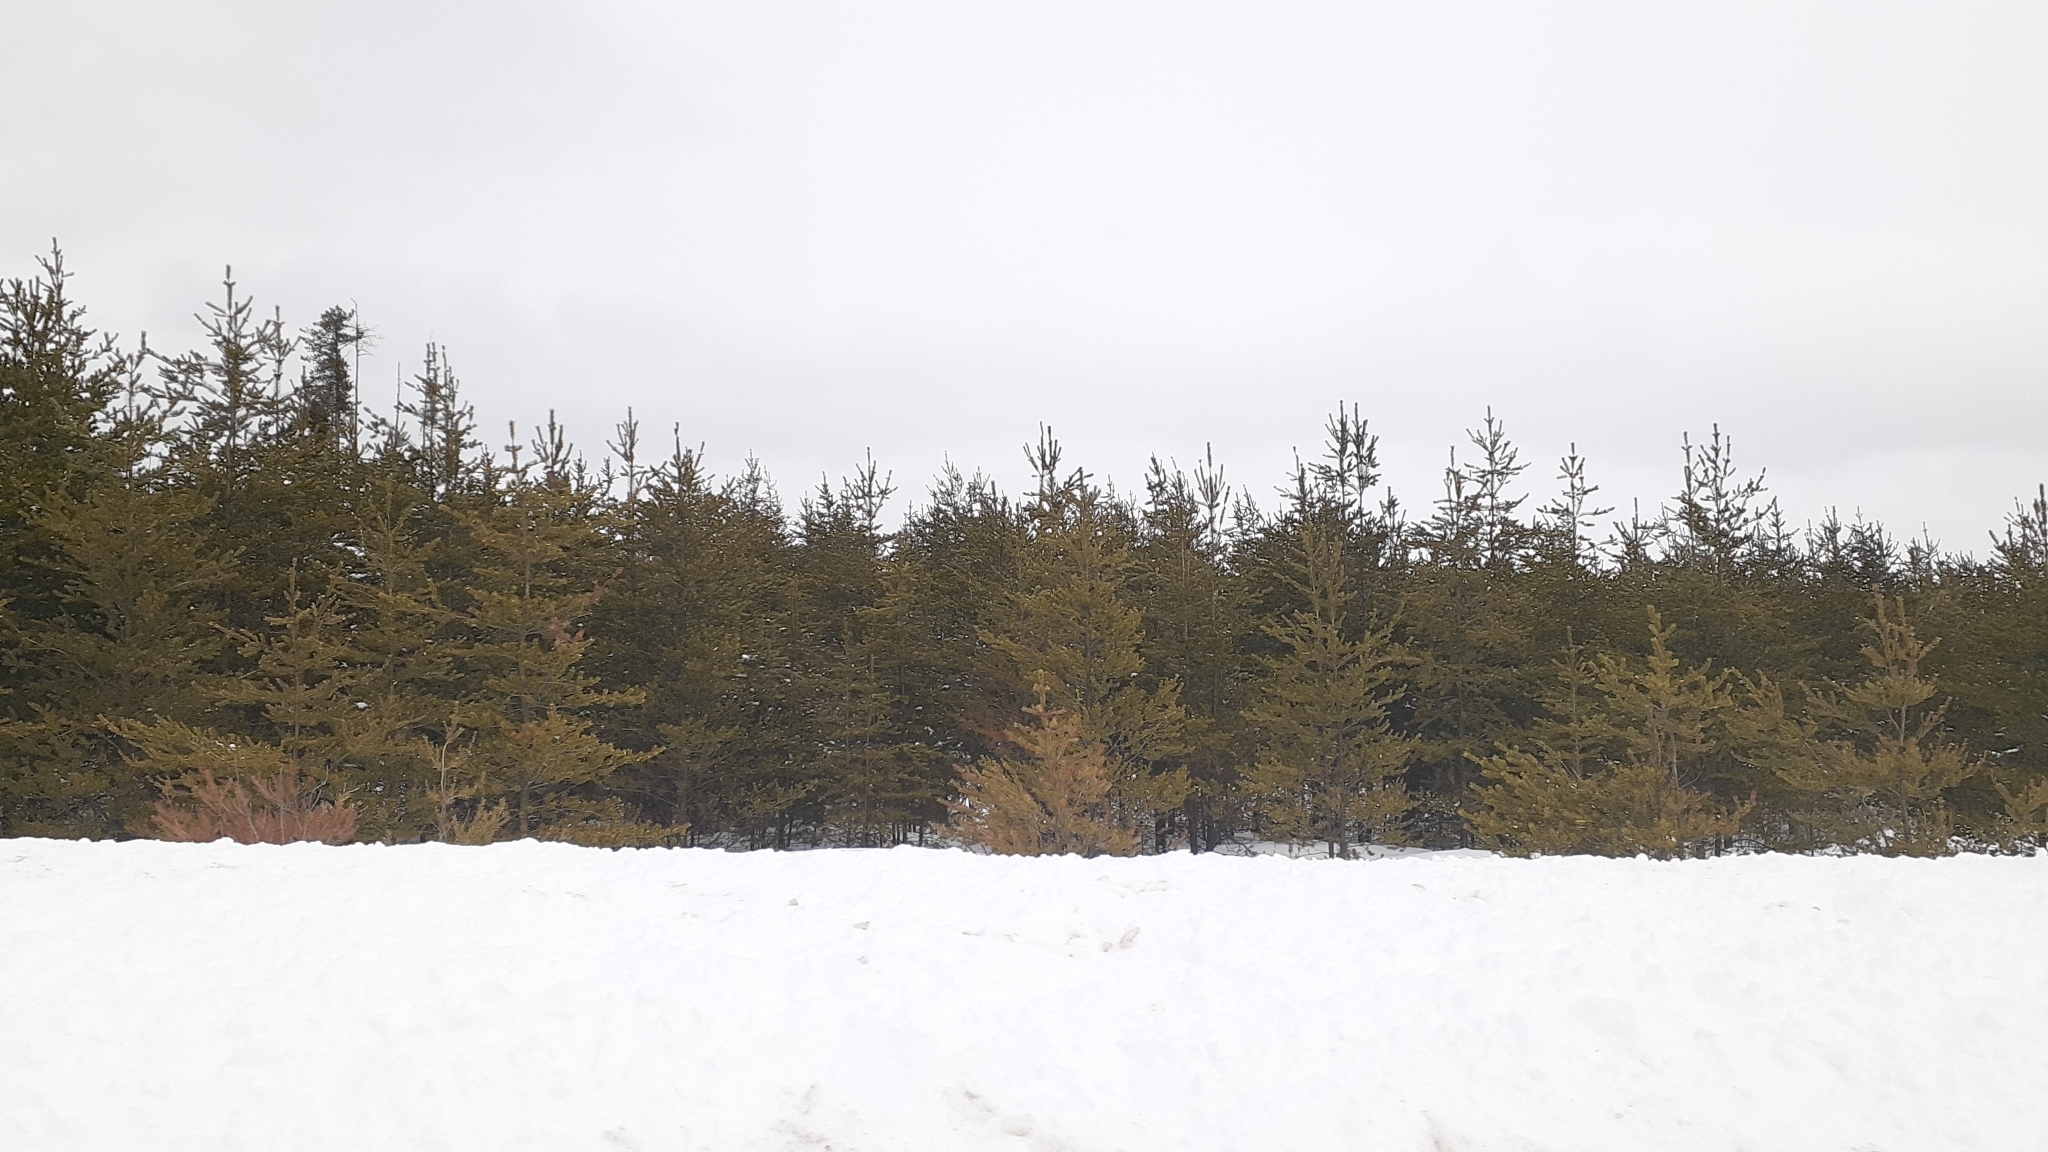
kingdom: Plantae
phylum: Tracheophyta
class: Pinopsida
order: Pinales
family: Pinaceae
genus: Pinus
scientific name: Pinus banksiana
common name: Jack pine
